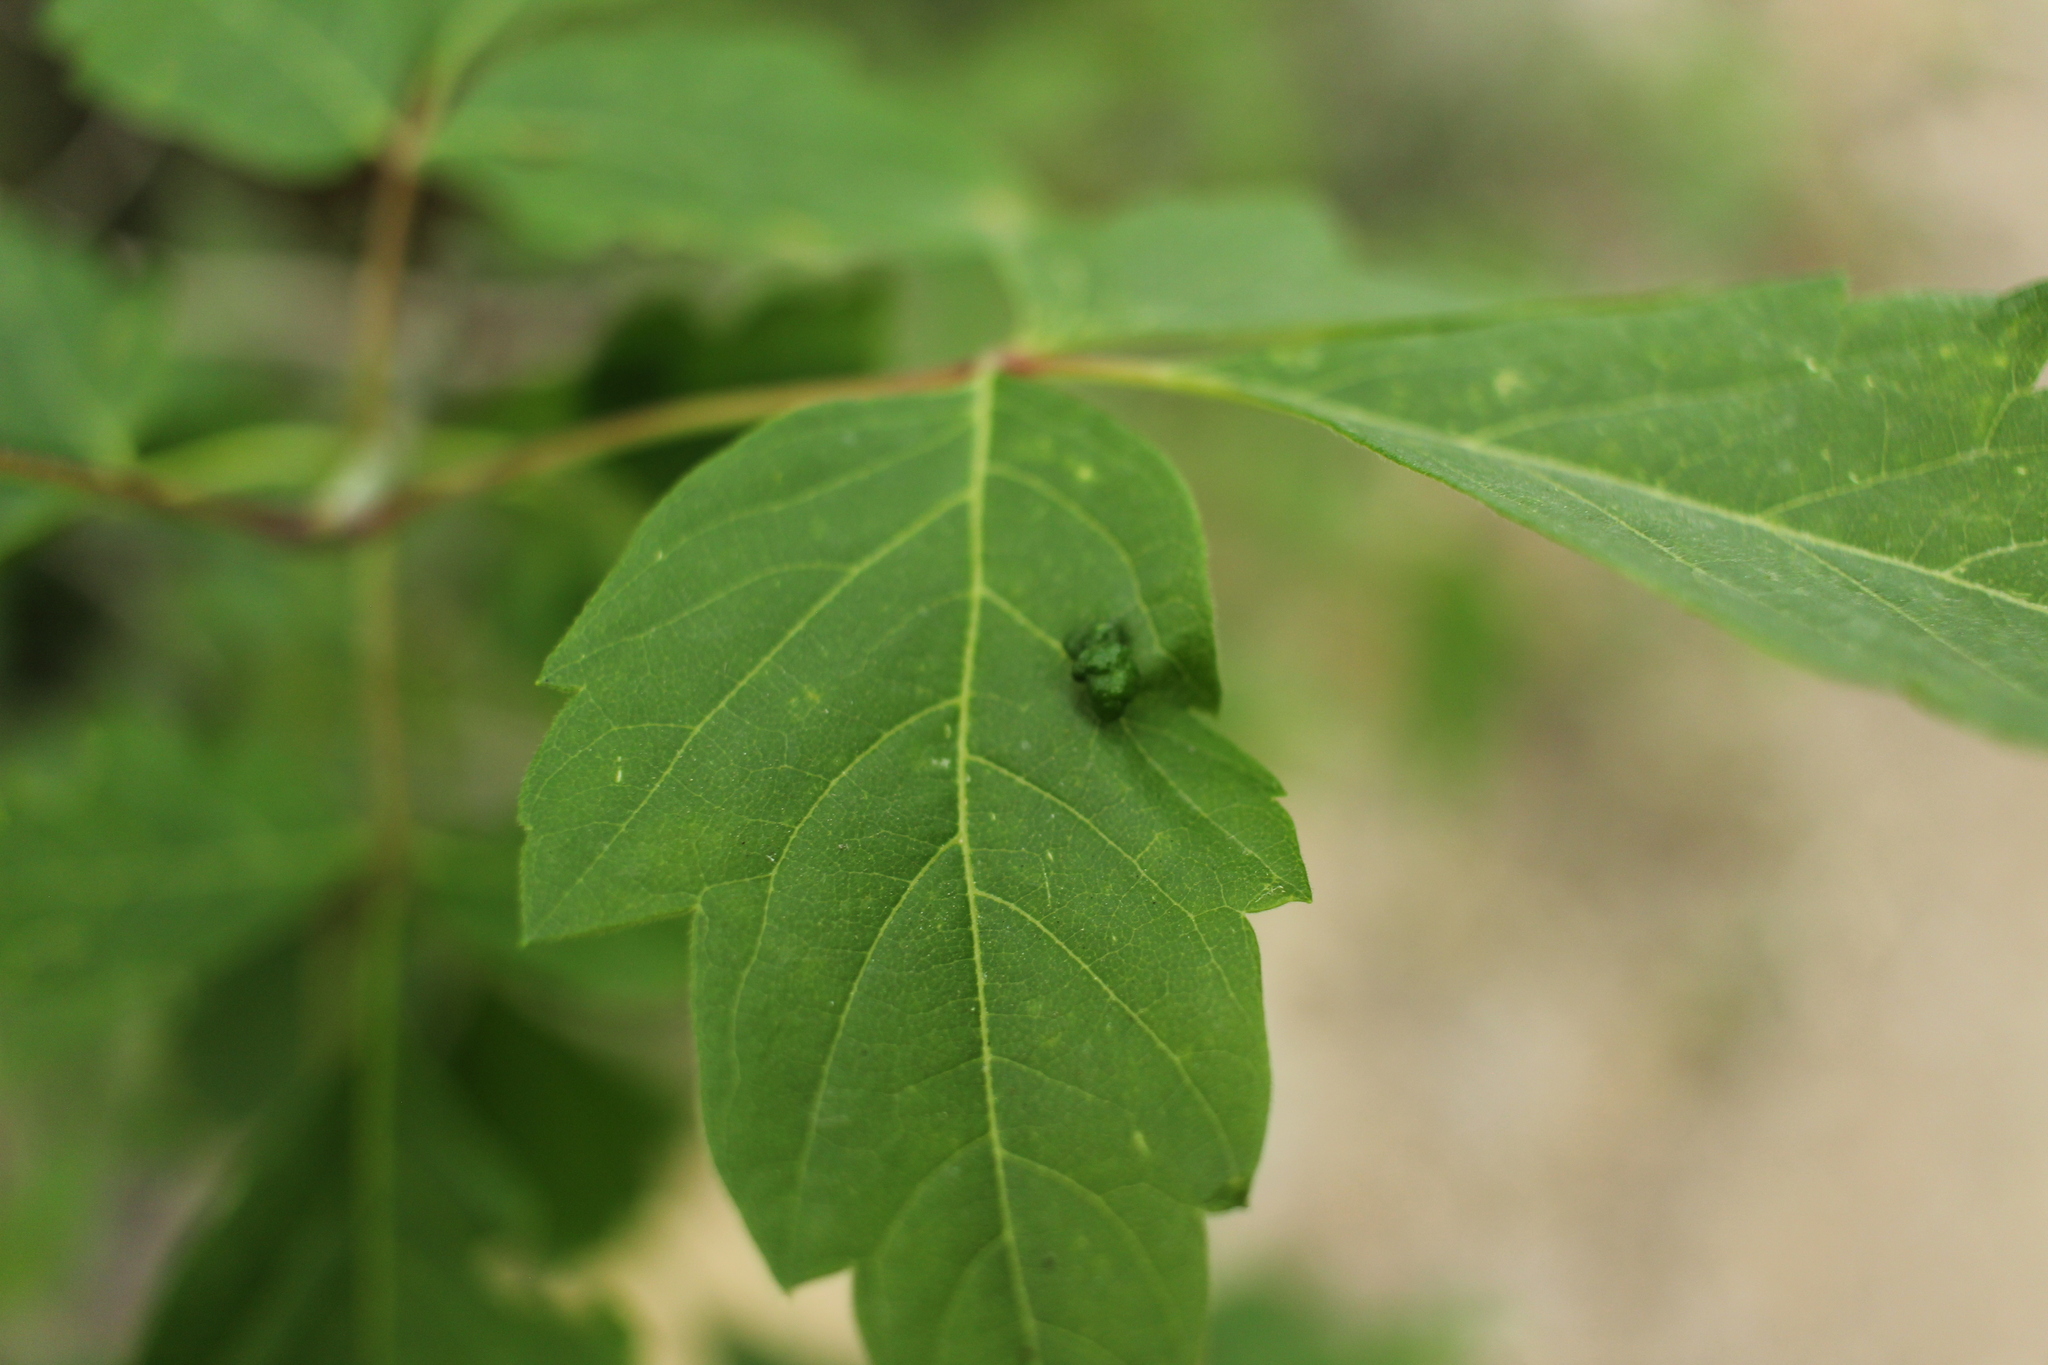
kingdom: Animalia
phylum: Arthropoda
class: Arachnida
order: Trombidiformes
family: Eriophyidae
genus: Aceria
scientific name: Aceria
